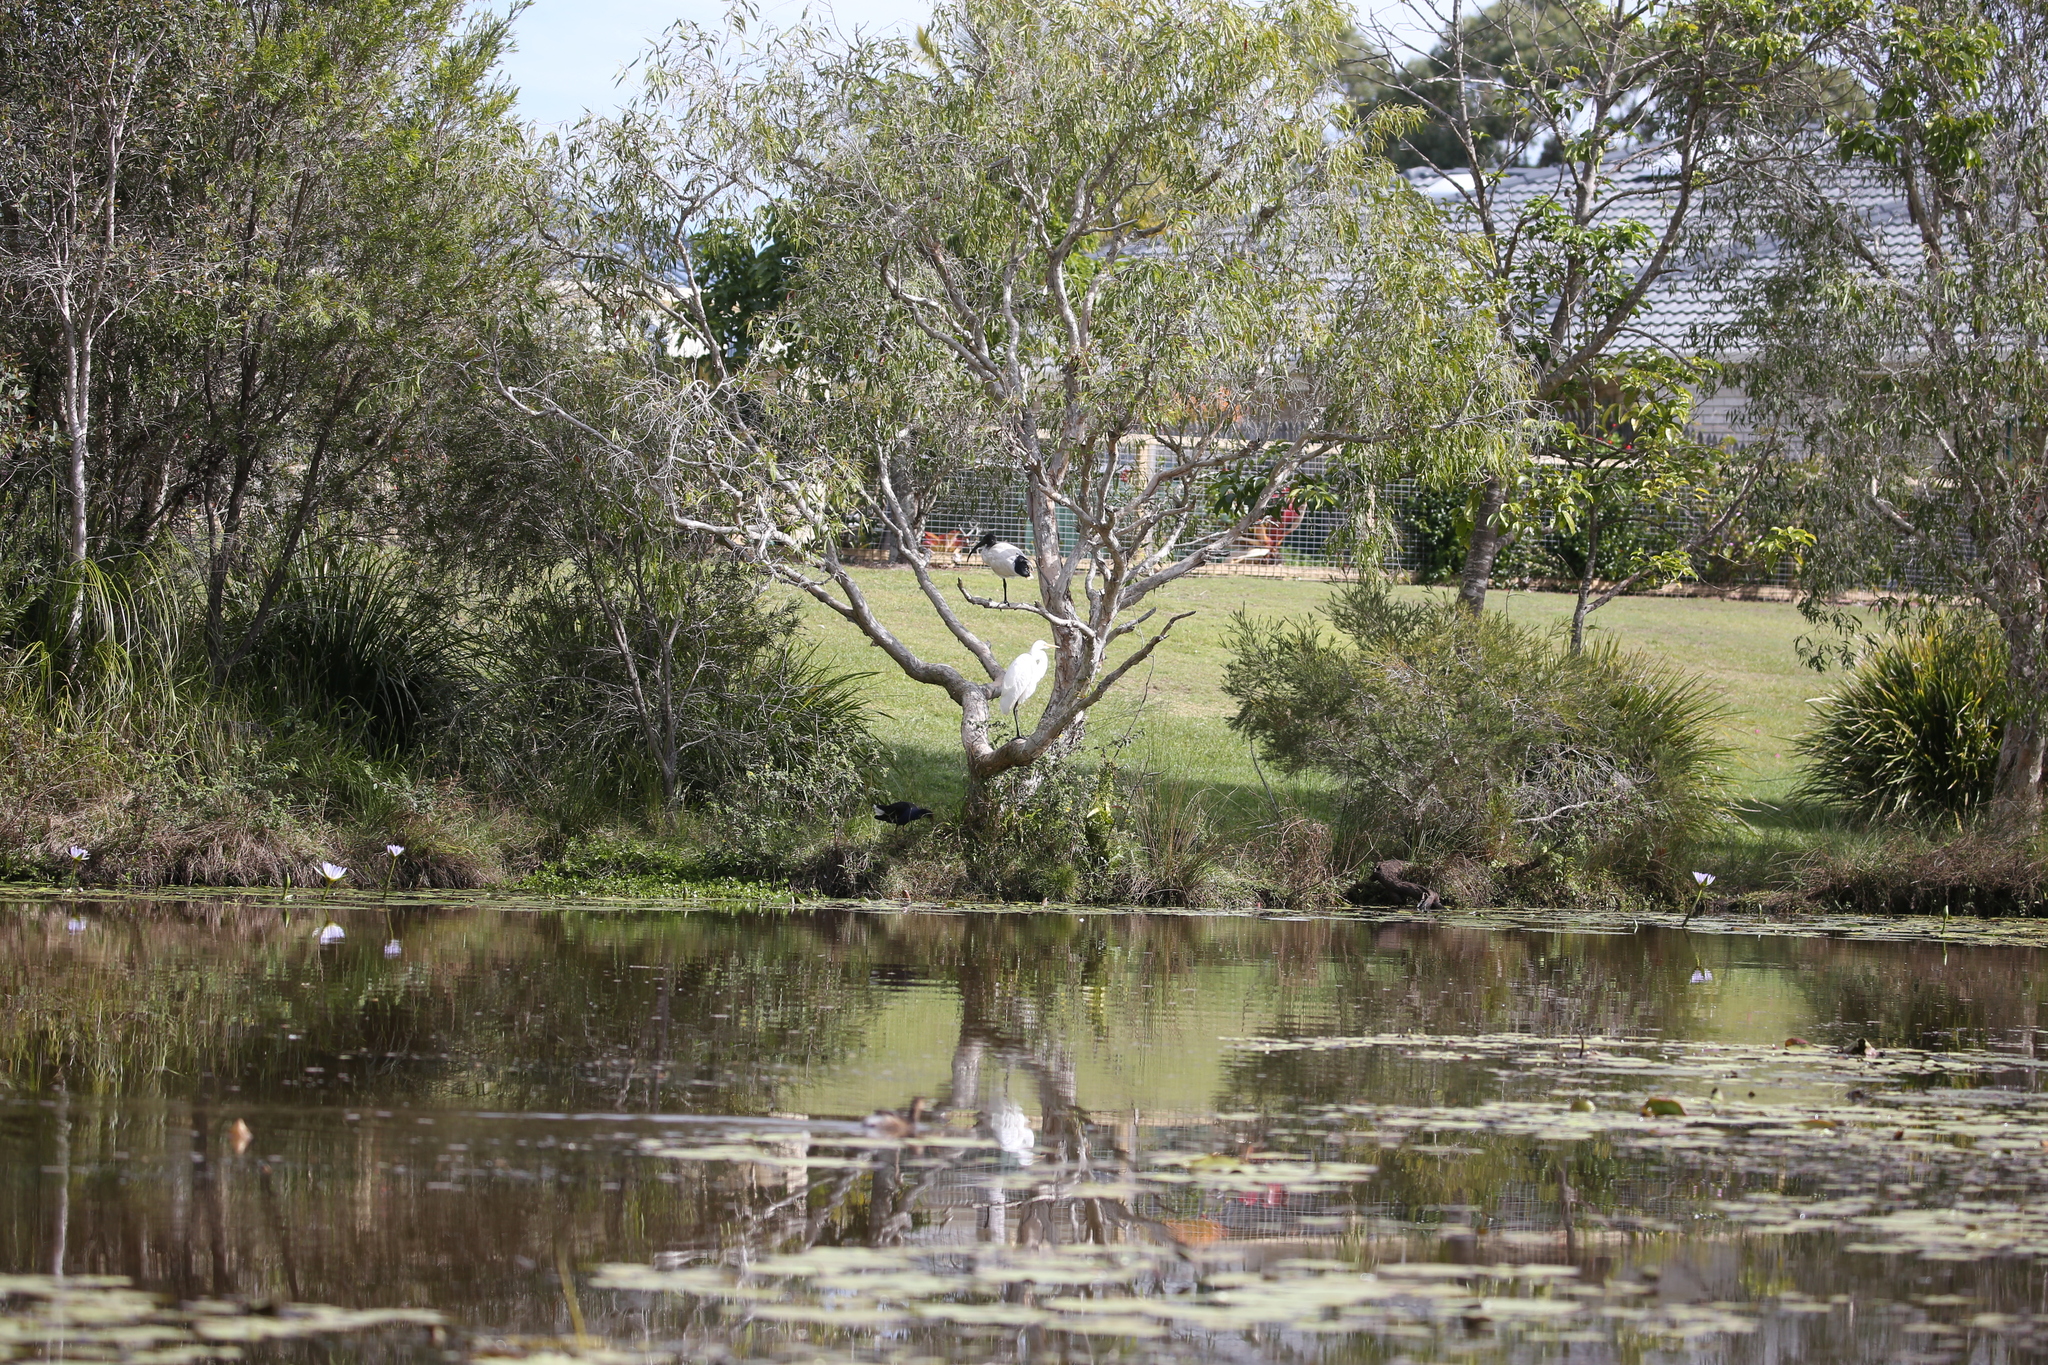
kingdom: Animalia
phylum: Chordata
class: Aves
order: Pelecaniformes
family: Ardeidae
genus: Ardea
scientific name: Ardea alba
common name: Great egret
